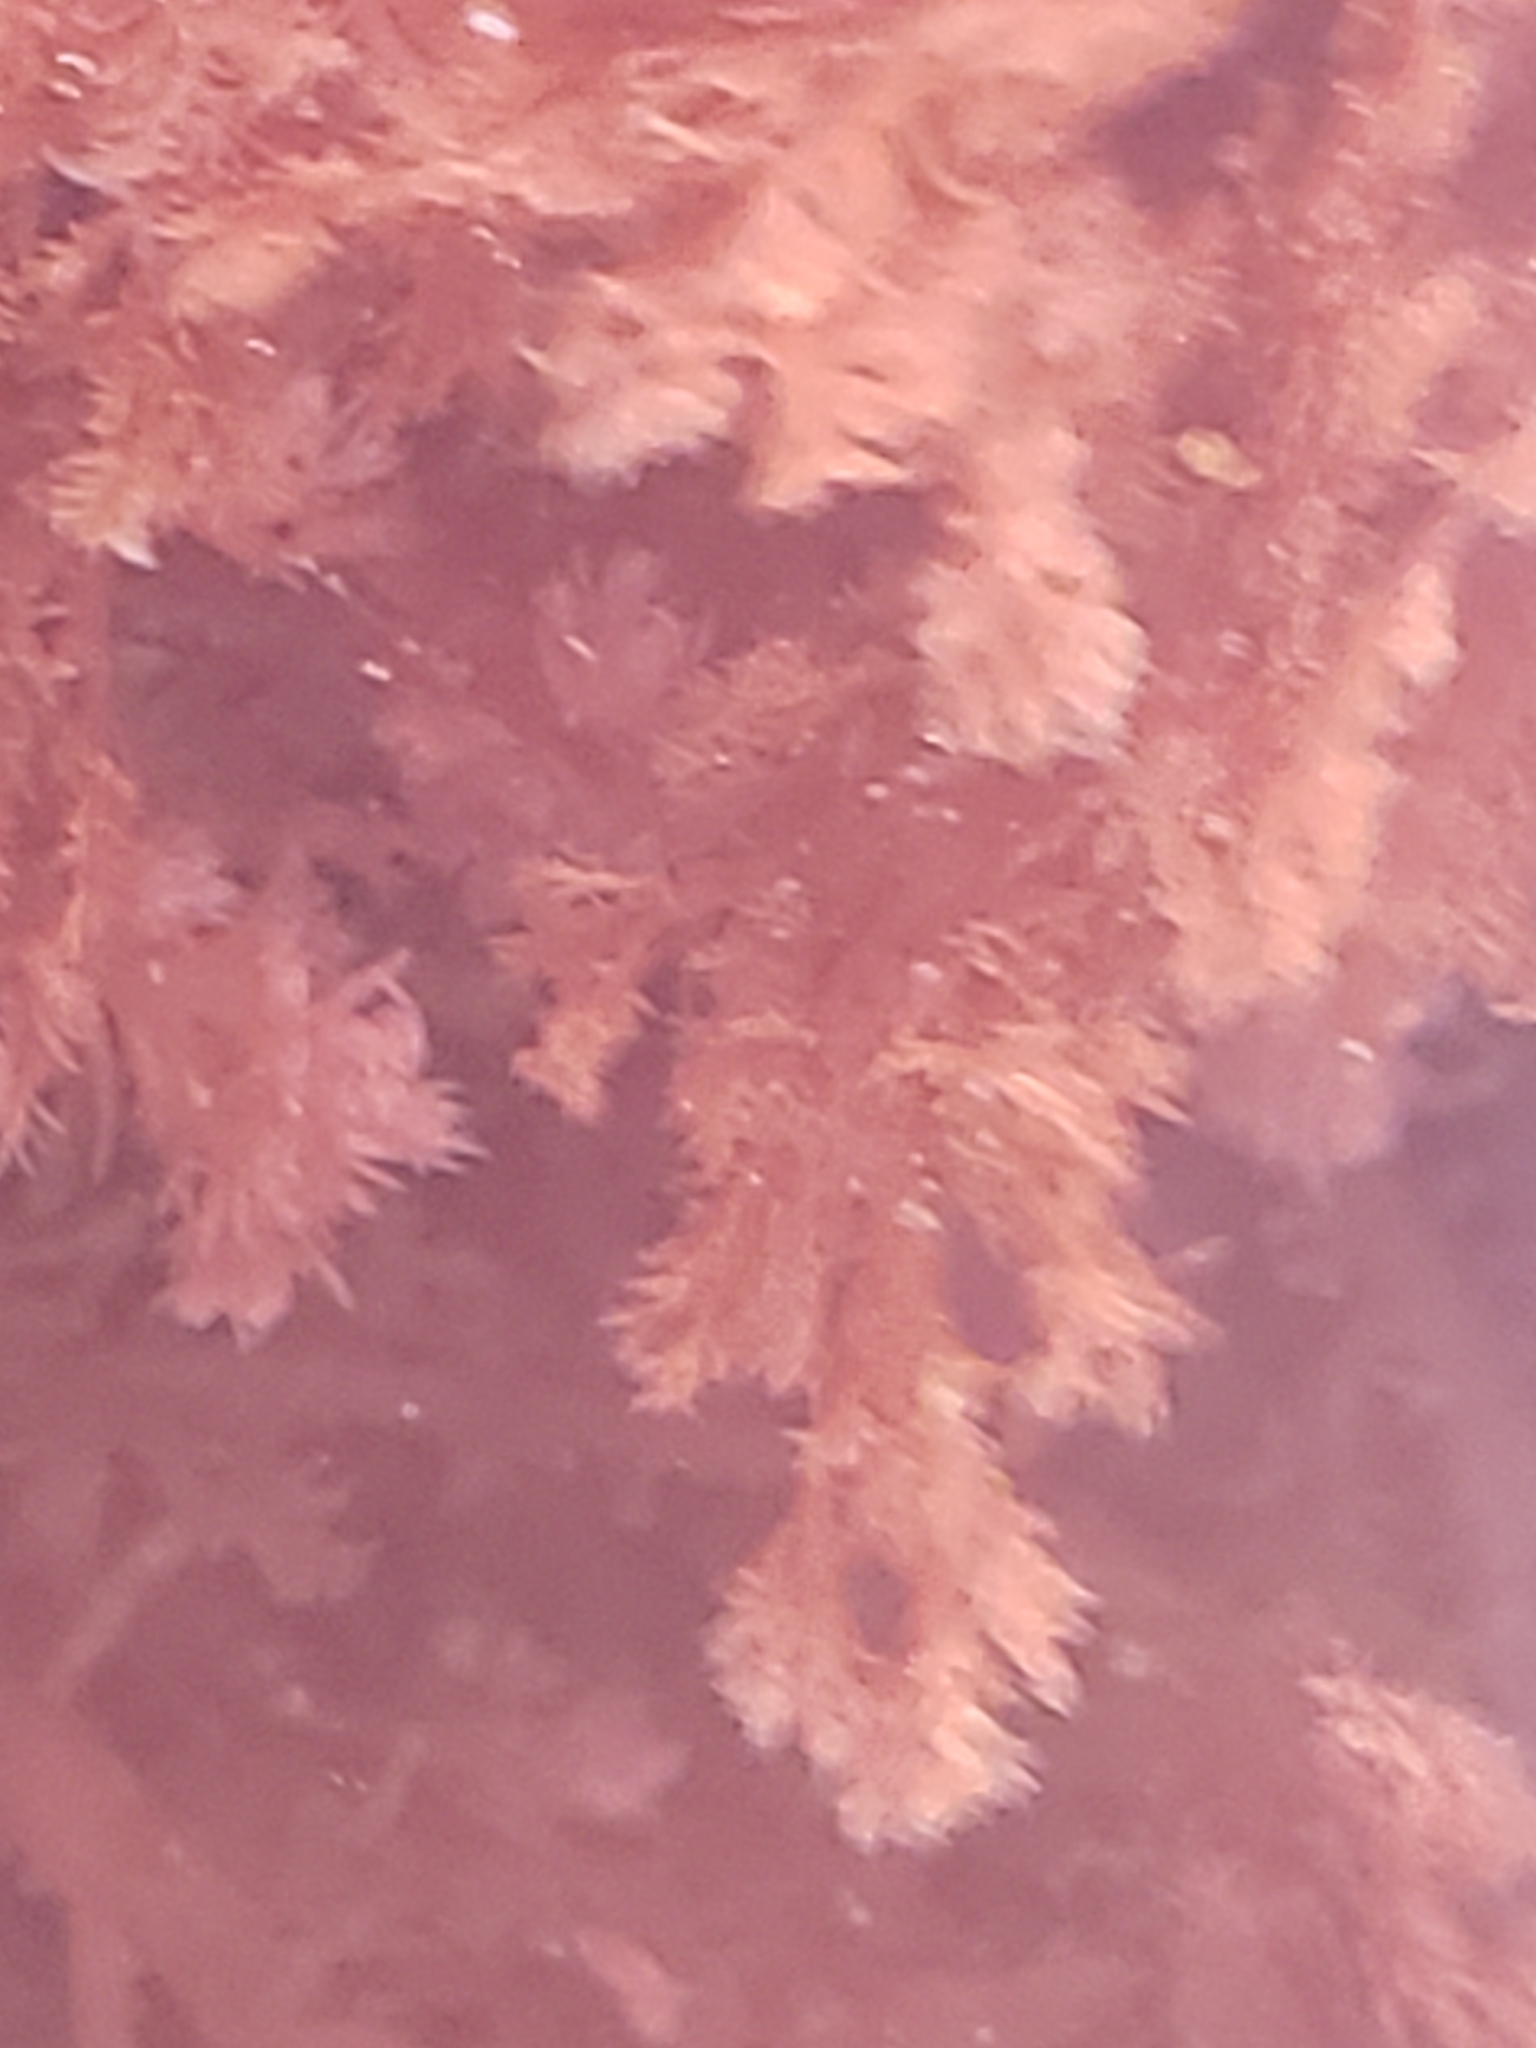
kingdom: Plantae
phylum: Rhodophyta
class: Florideophyceae
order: Plocamiales
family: Plocamiaceae
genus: Plocamium
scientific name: Plocamium cartilagineum
